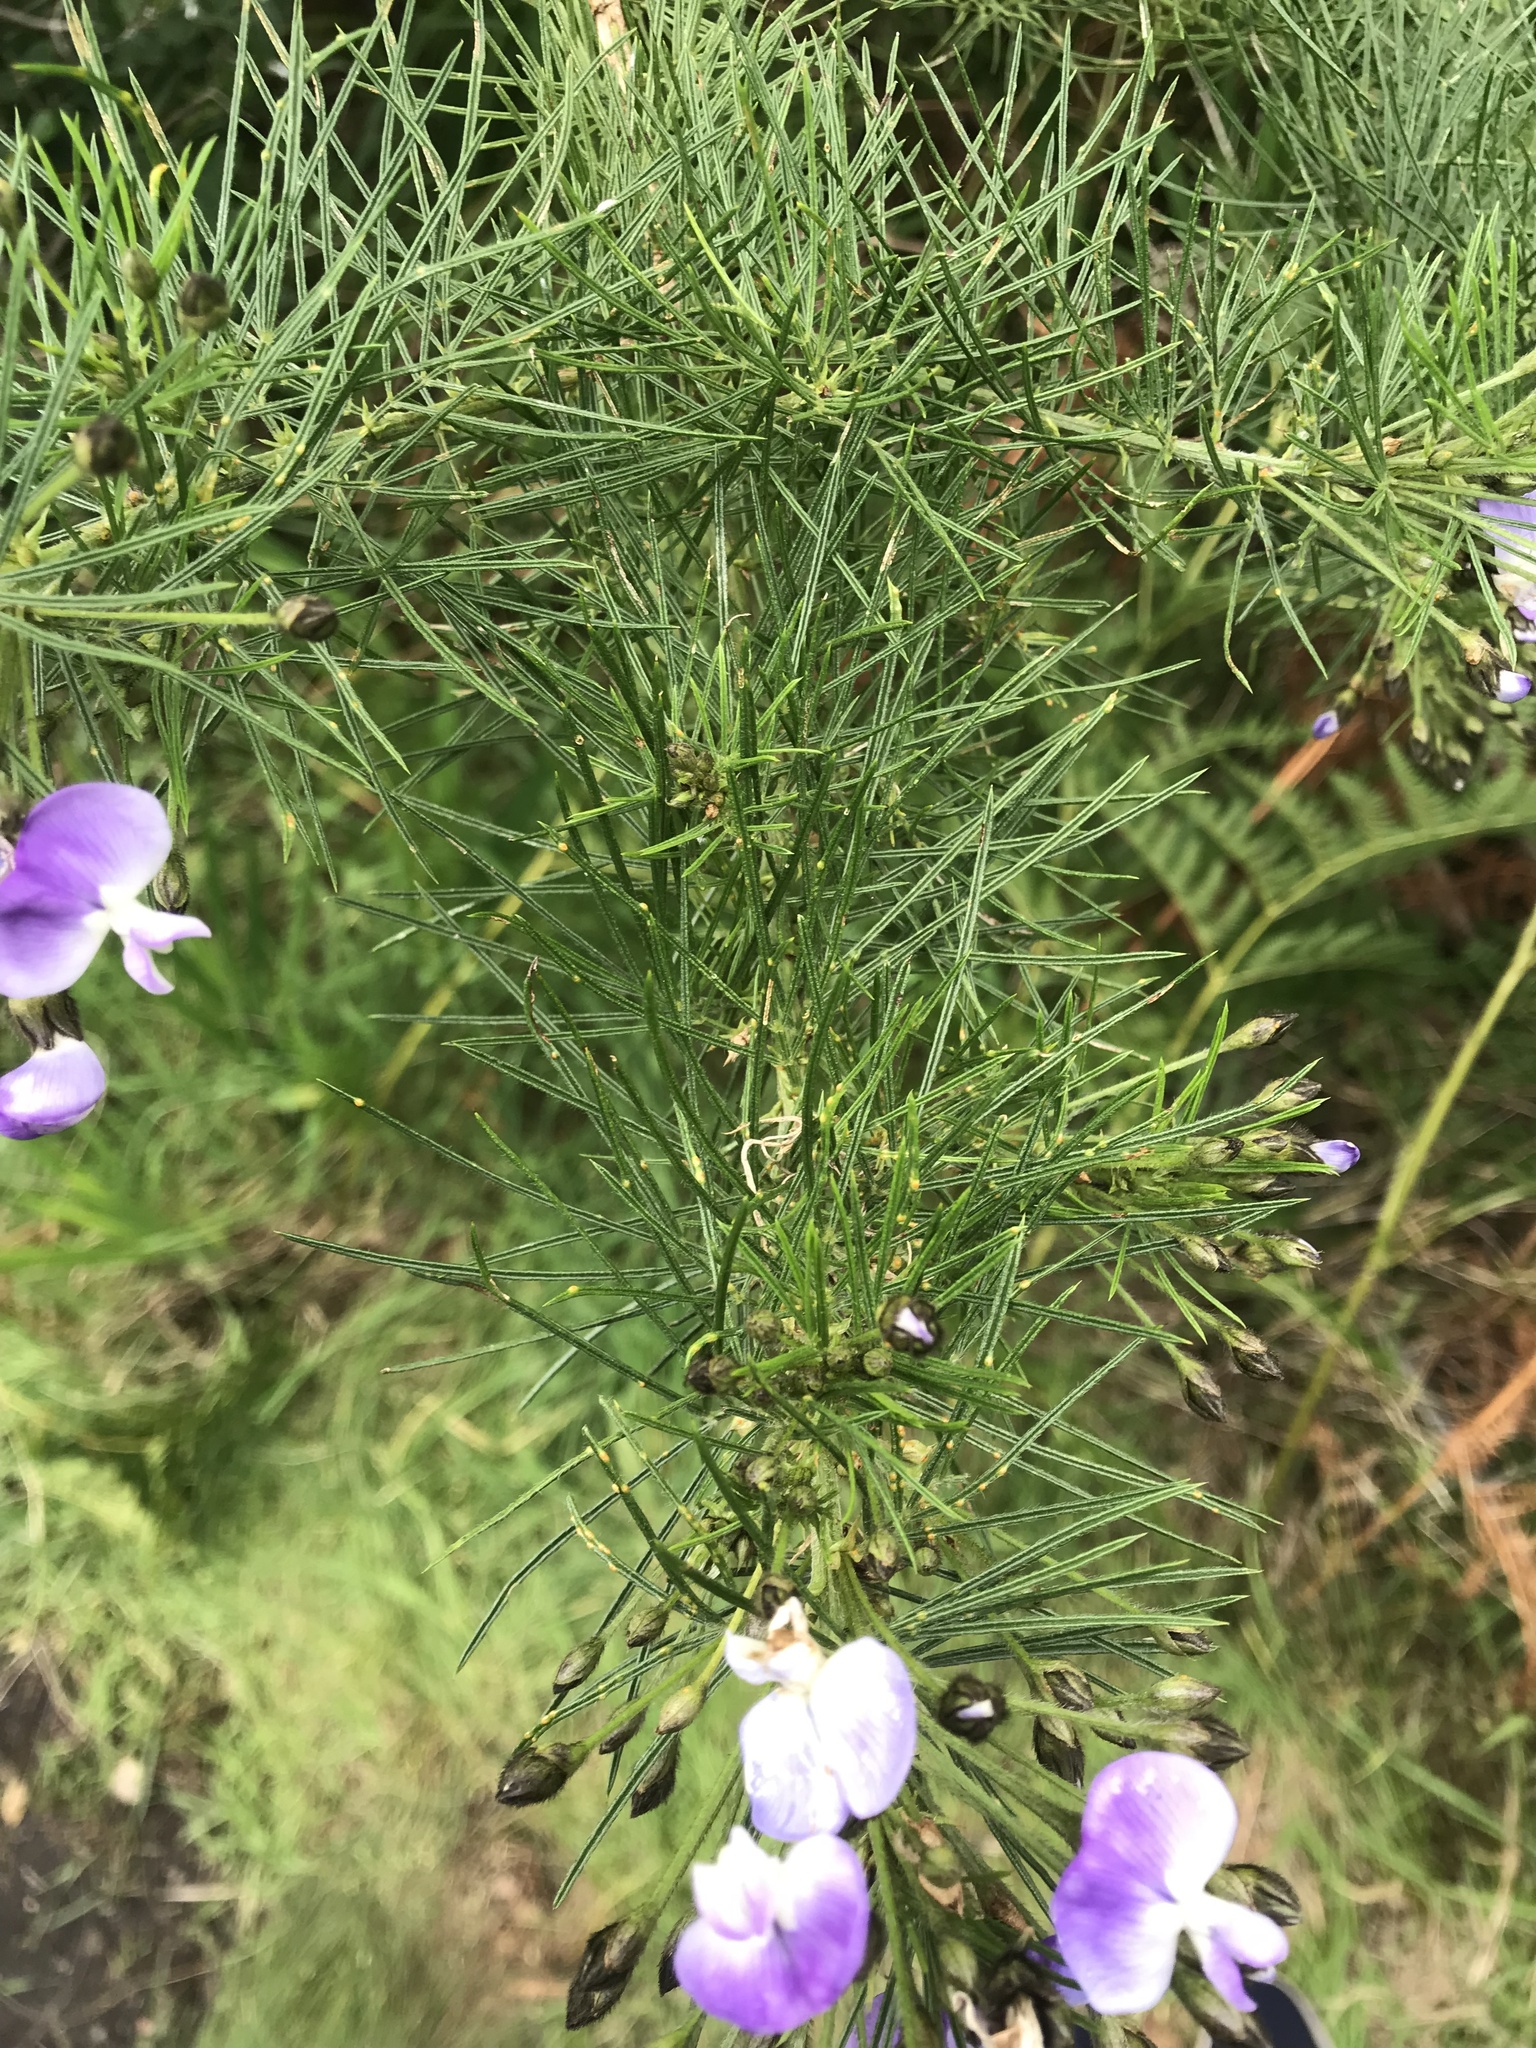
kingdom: Plantae
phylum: Tracheophyta
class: Magnoliopsida
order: Fabales
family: Fabaceae
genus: Psoralea
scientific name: Psoralea arborea
